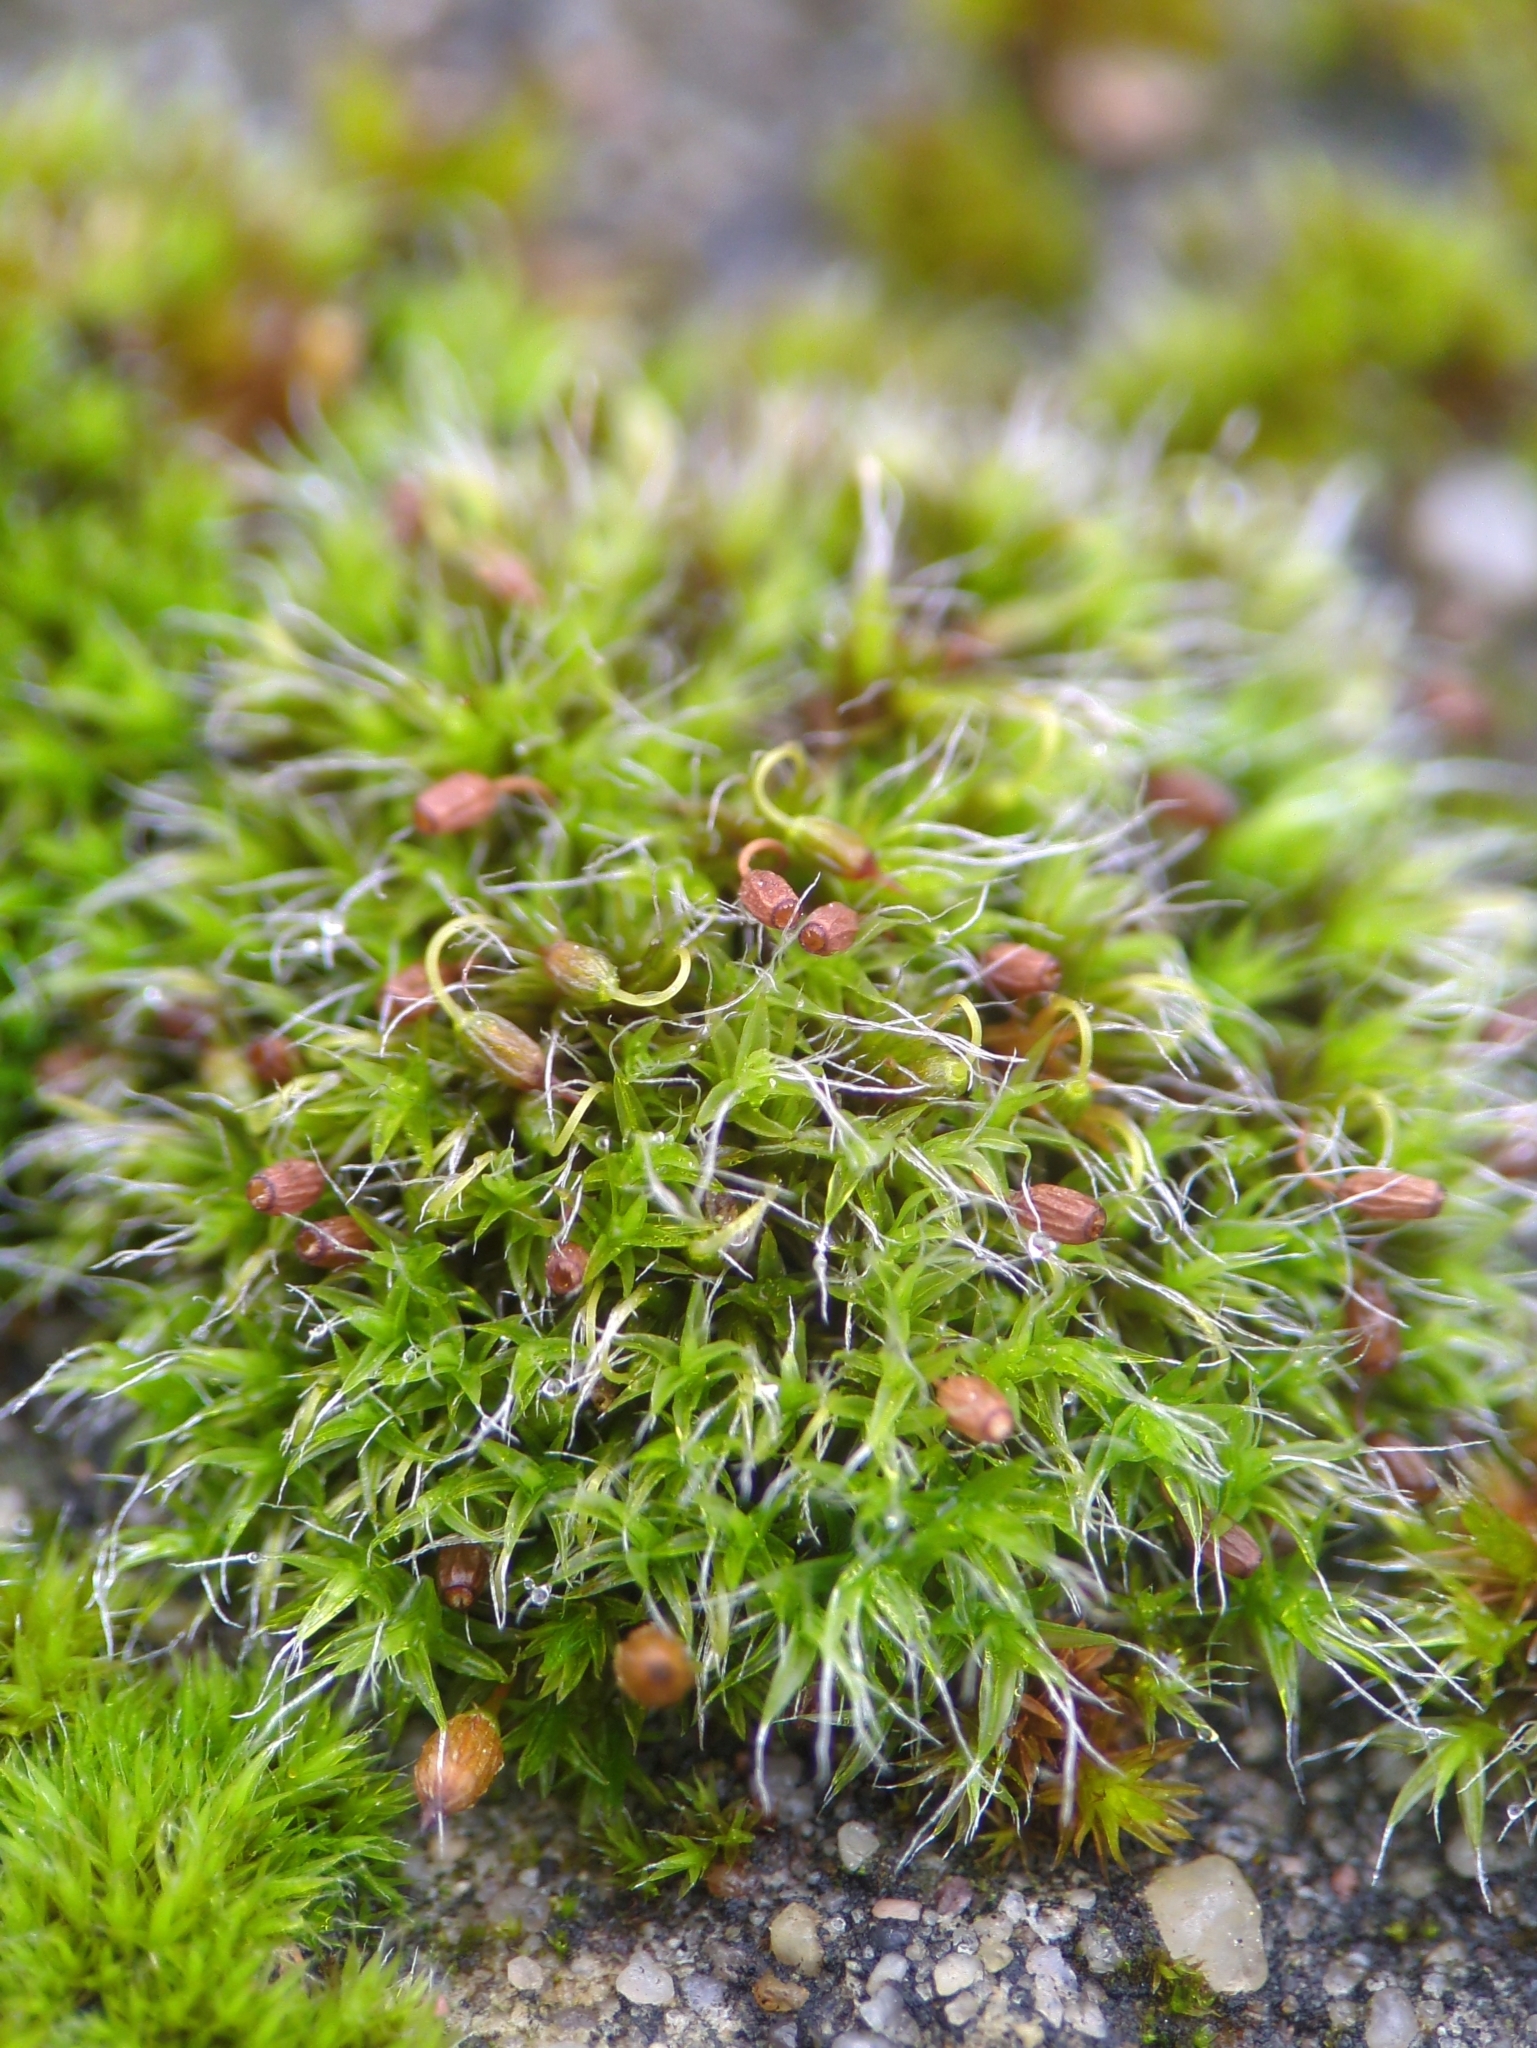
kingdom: Plantae
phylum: Bryophyta
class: Bryopsida
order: Grimmiales
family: Grimmiaceae
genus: Grimmia
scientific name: Grimmia pulvinata
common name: Grey-cushioned grimmia
